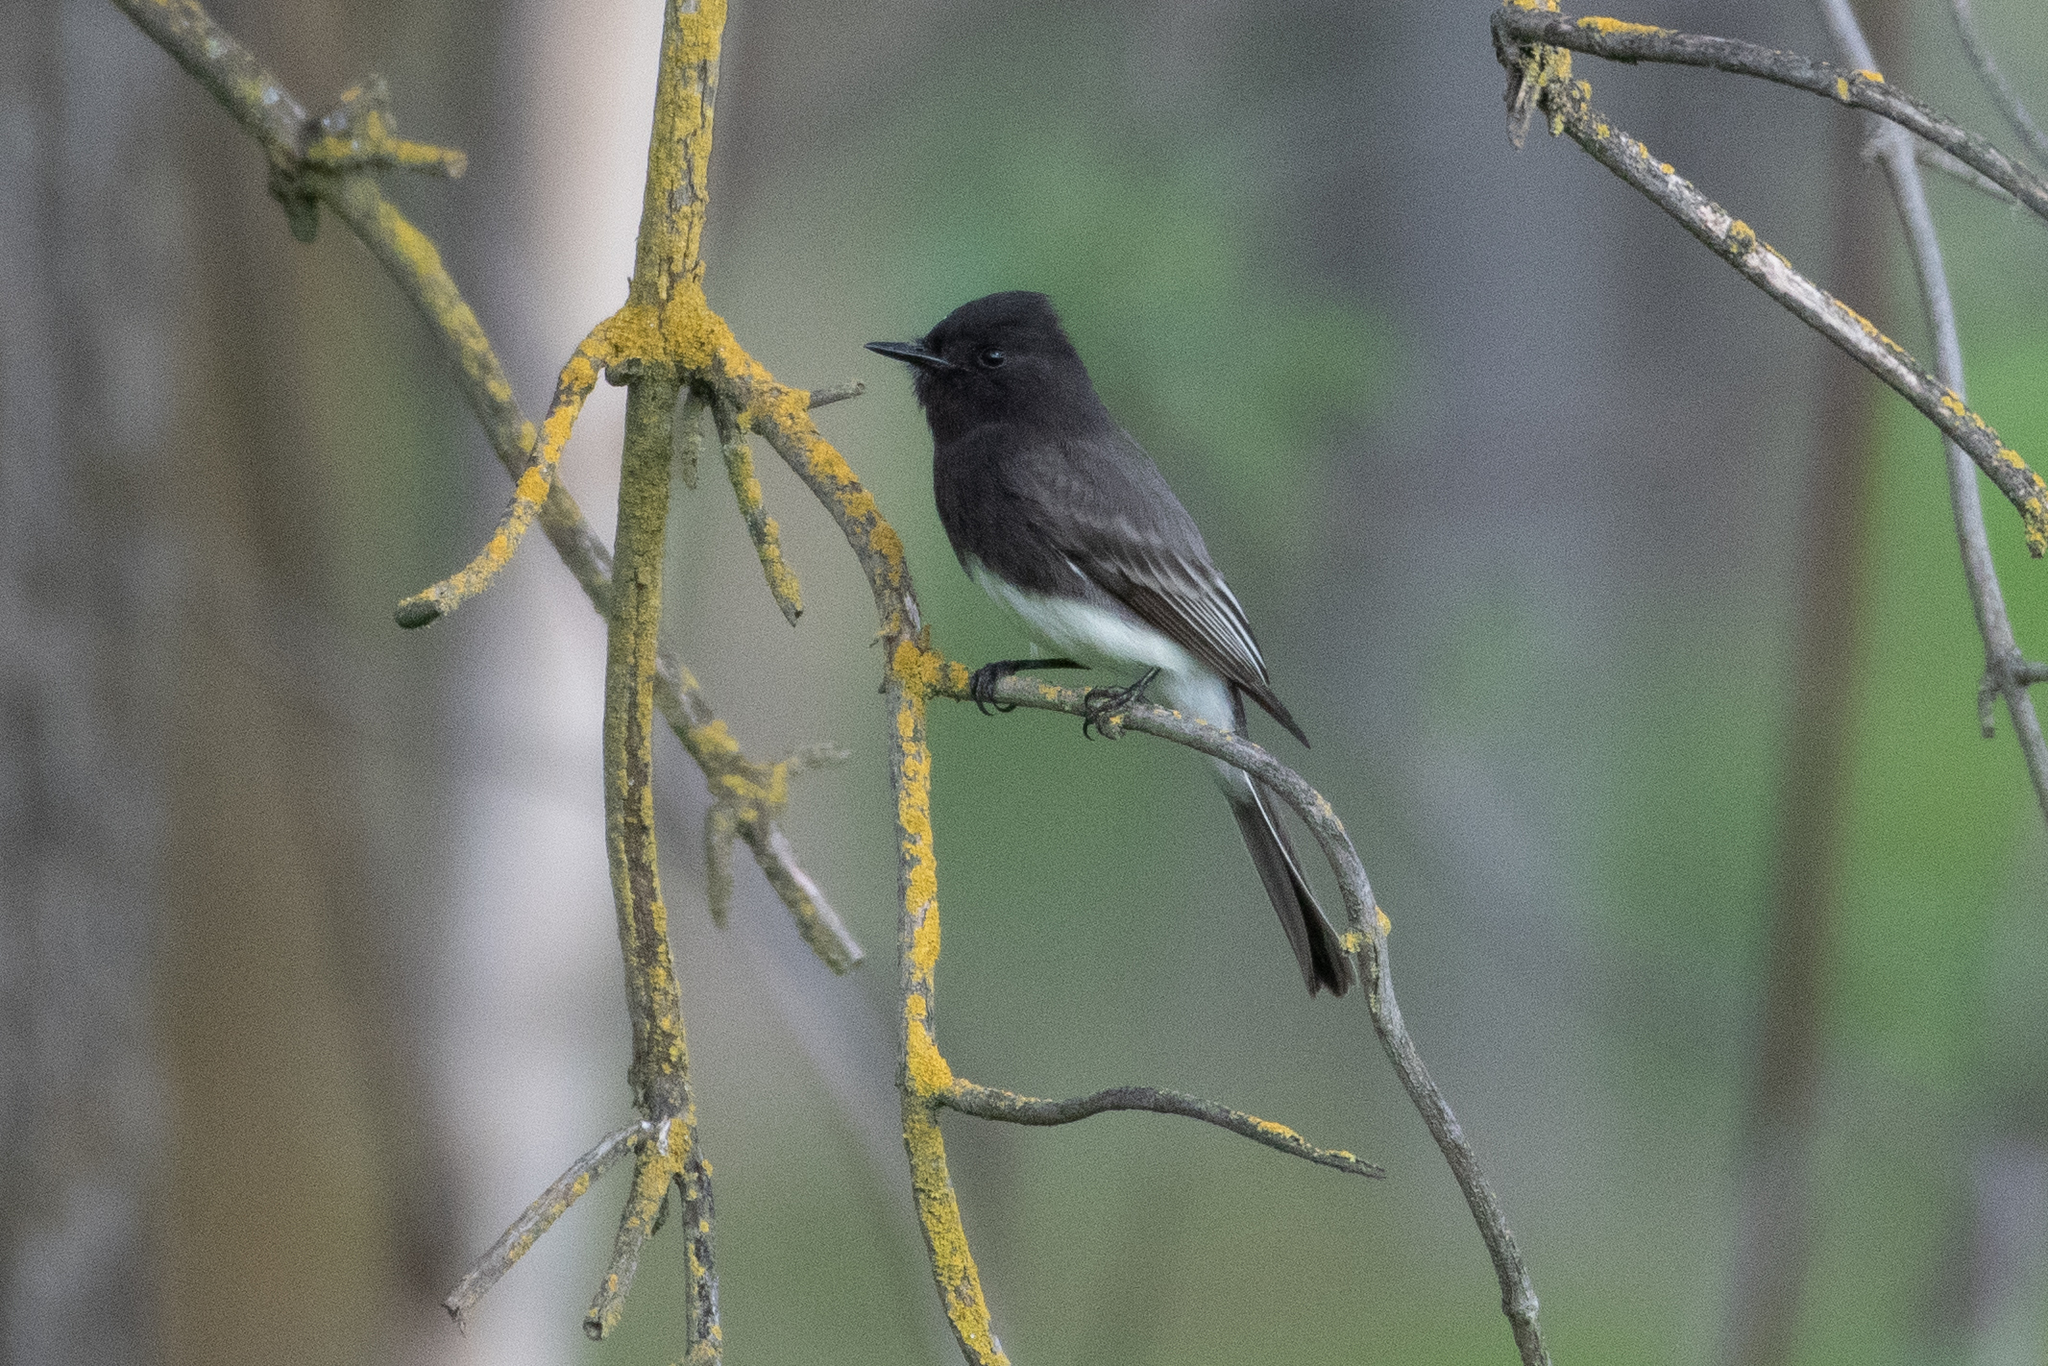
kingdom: Animalia
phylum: Chordata
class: Aves
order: Passeriformes
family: Tyrannidae
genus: Sayornis
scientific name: Sayornis nigricans
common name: Black phoebe
